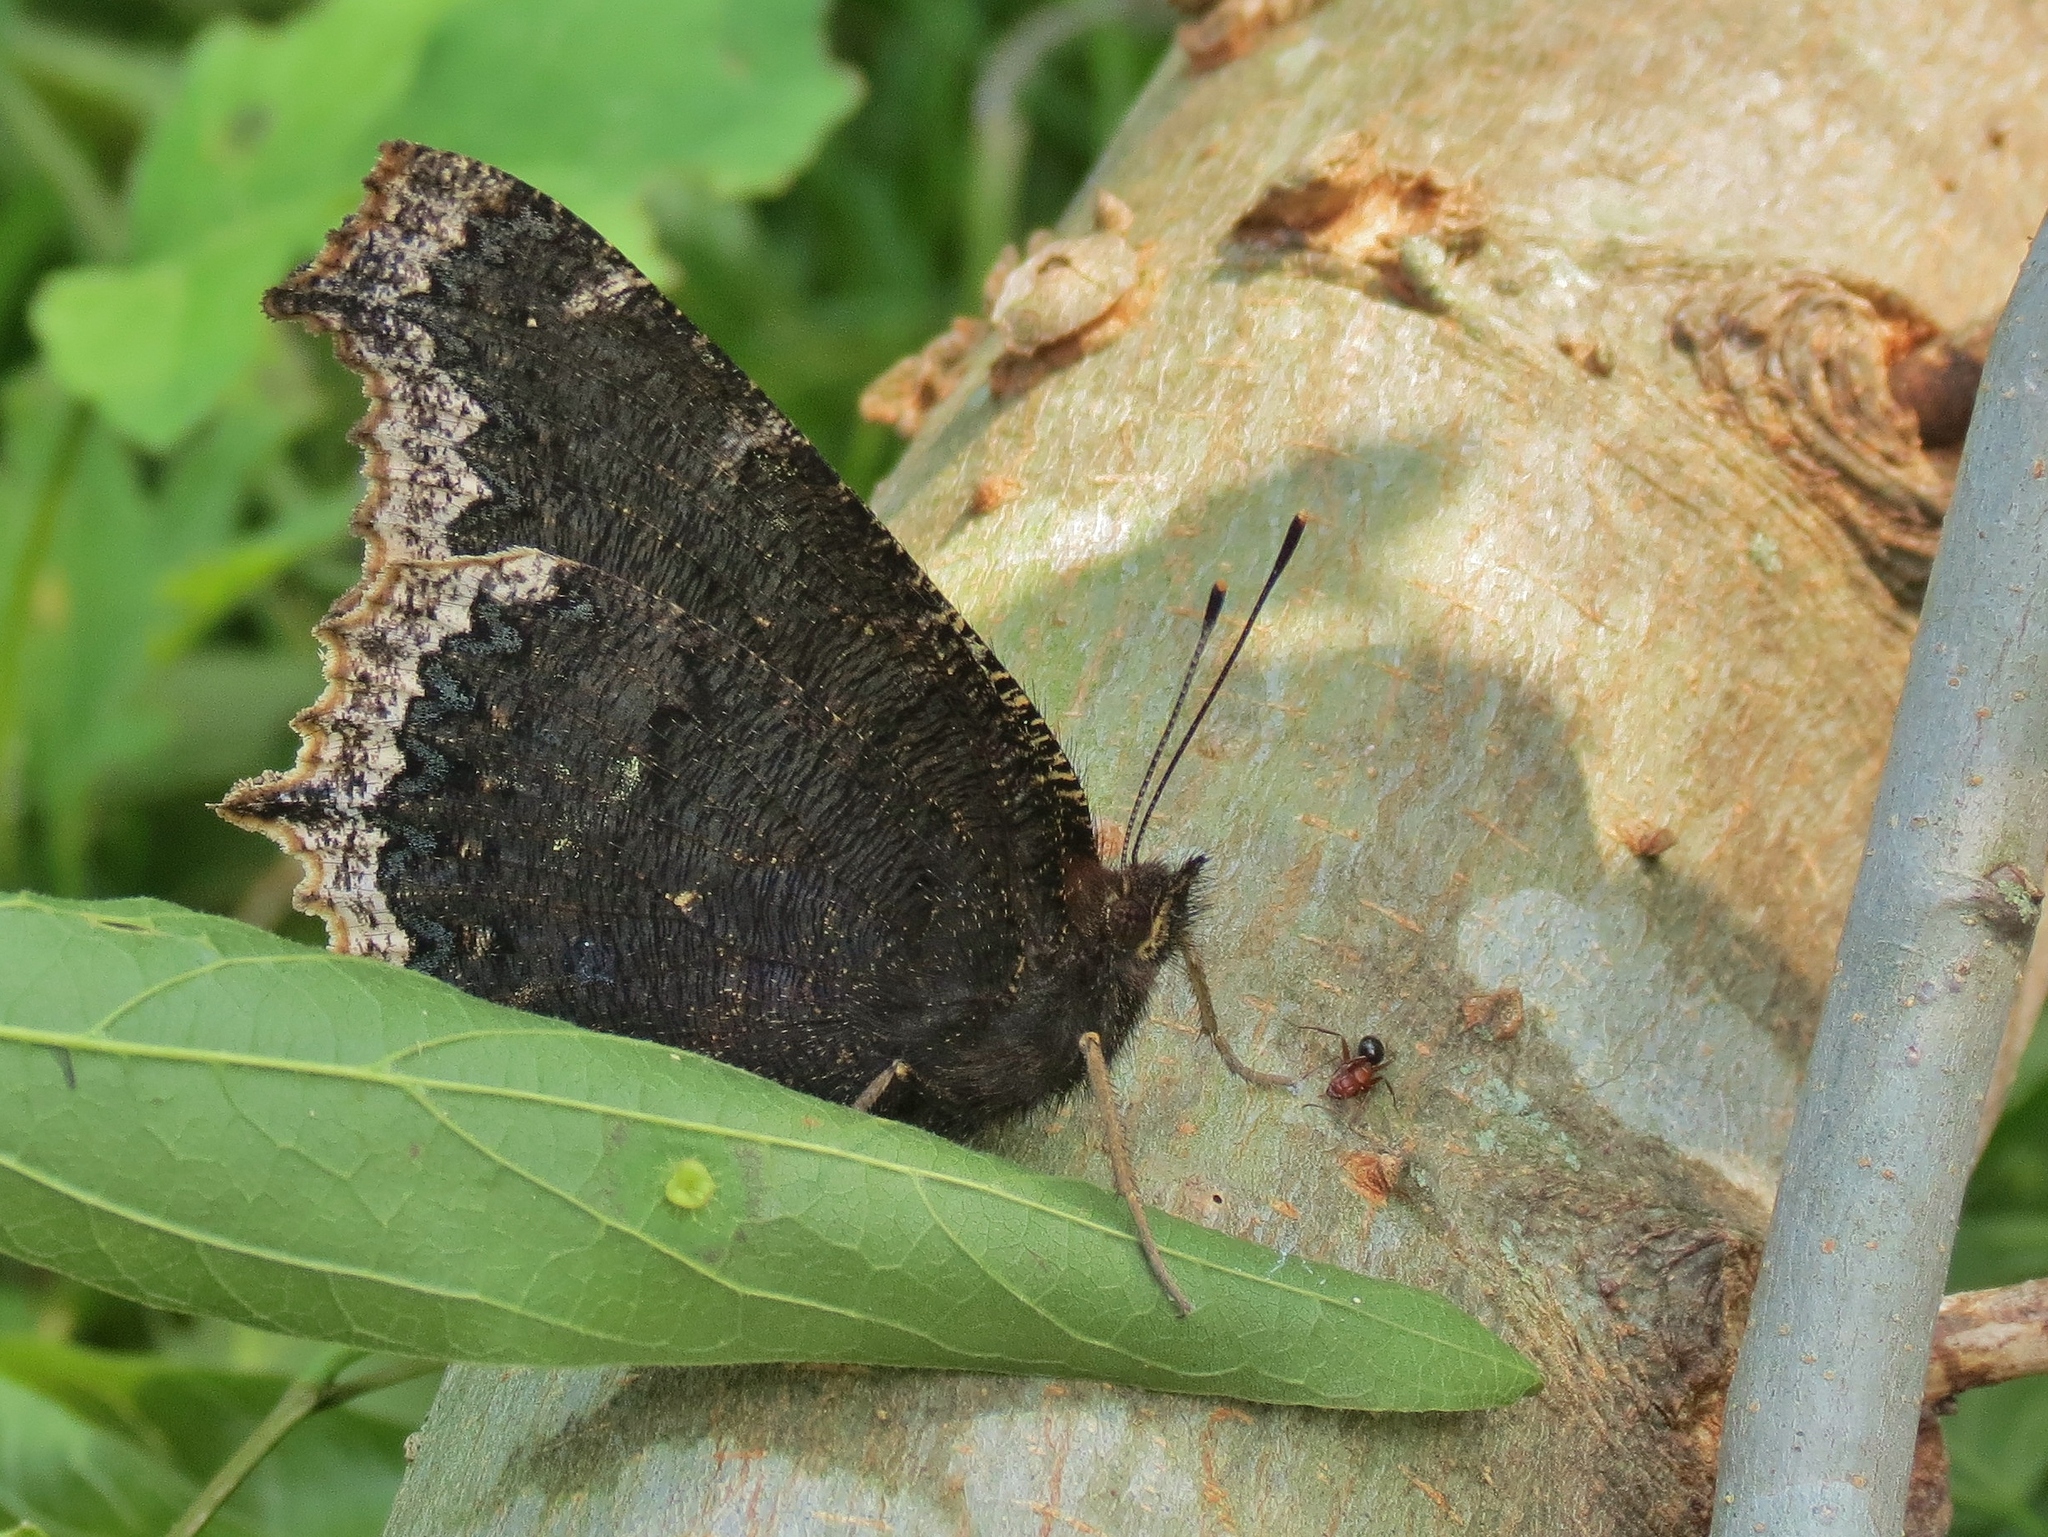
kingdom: Animalia
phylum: Arthropoda
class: Insecta
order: Lepidoptera
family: Nymphalidae
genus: Nymphalis
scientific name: Nymphalis antiopa
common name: Camberwell beauty
